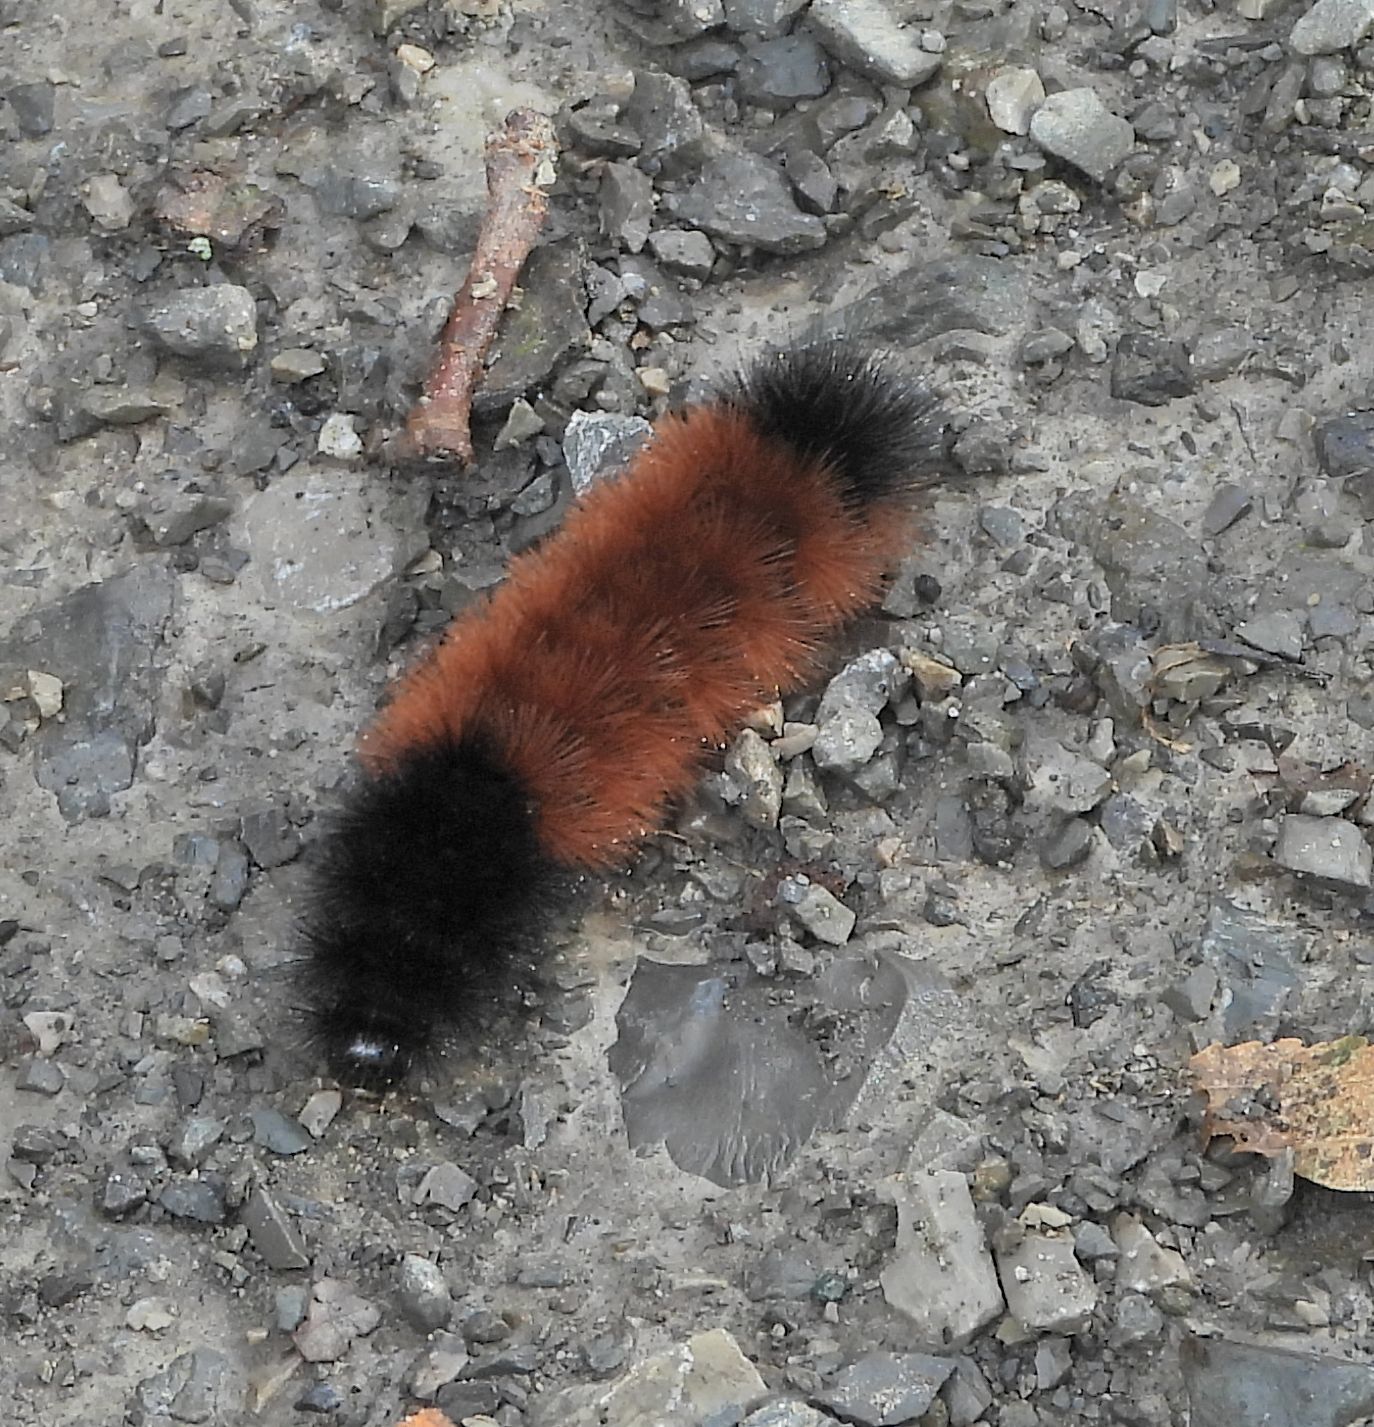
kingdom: Animalia
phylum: Arthropoda
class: Insecta
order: Lepidoptera
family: Erebidae
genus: Pyrrharctia
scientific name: Pyrrharctia isabella
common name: Isabella tiger moth
